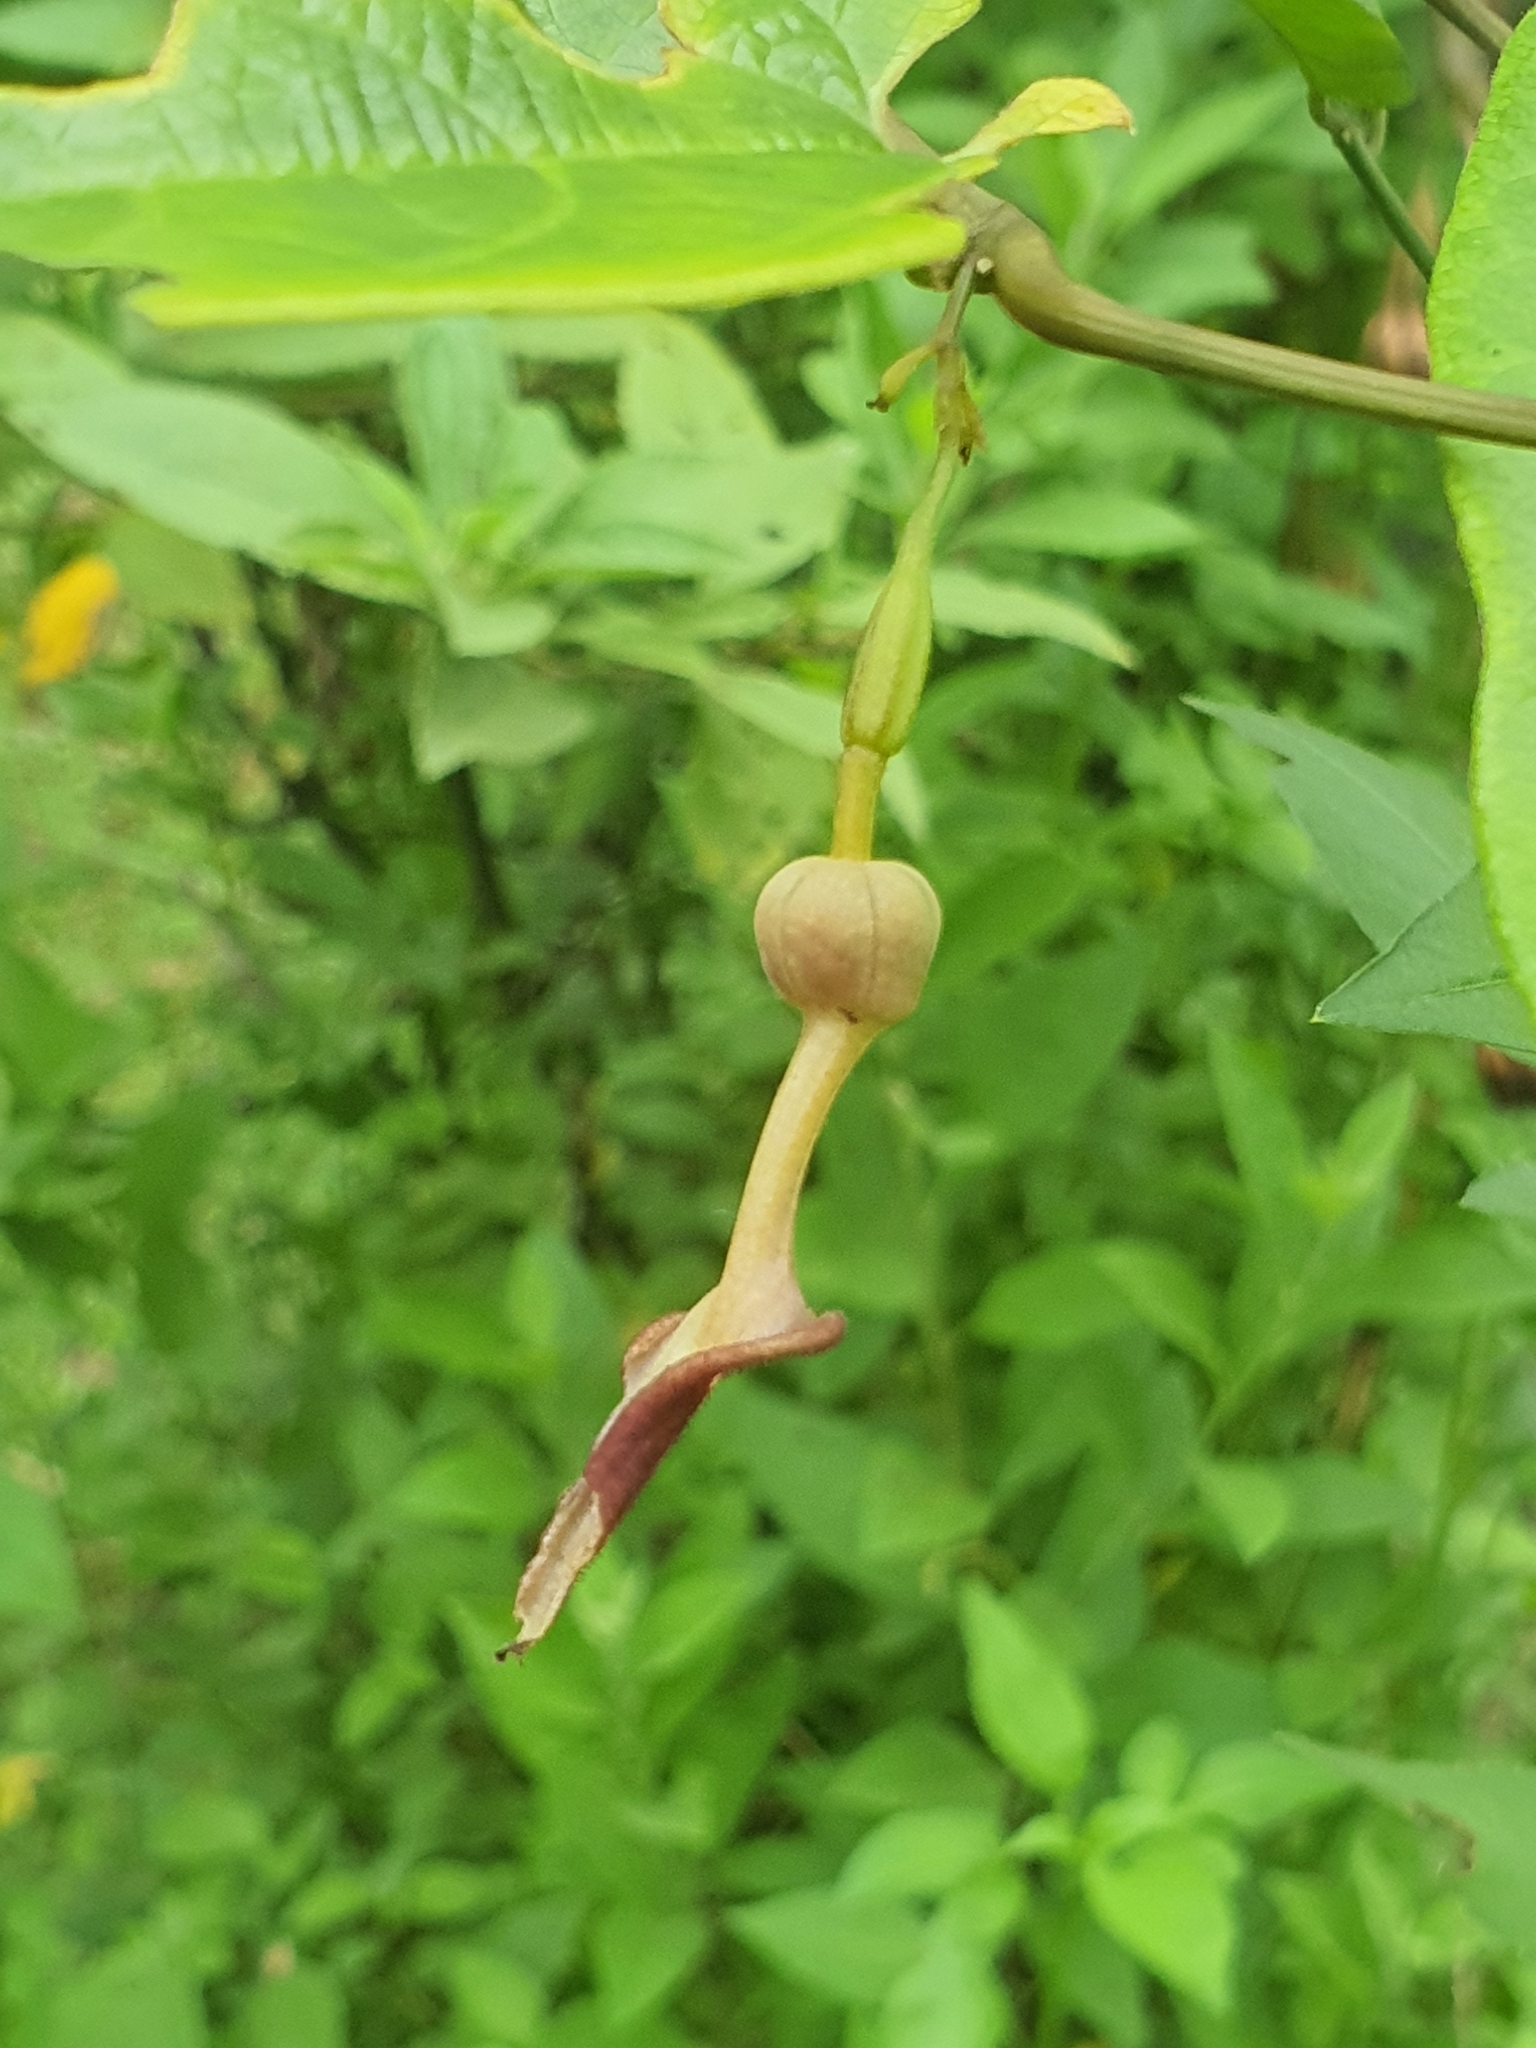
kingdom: Plantae
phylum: Tracheophyta
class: Magnoliopsida
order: Piperales
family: Aristolochiaceae
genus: Aristolochia
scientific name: Aristolochia acuminata
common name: Indian birthwort
